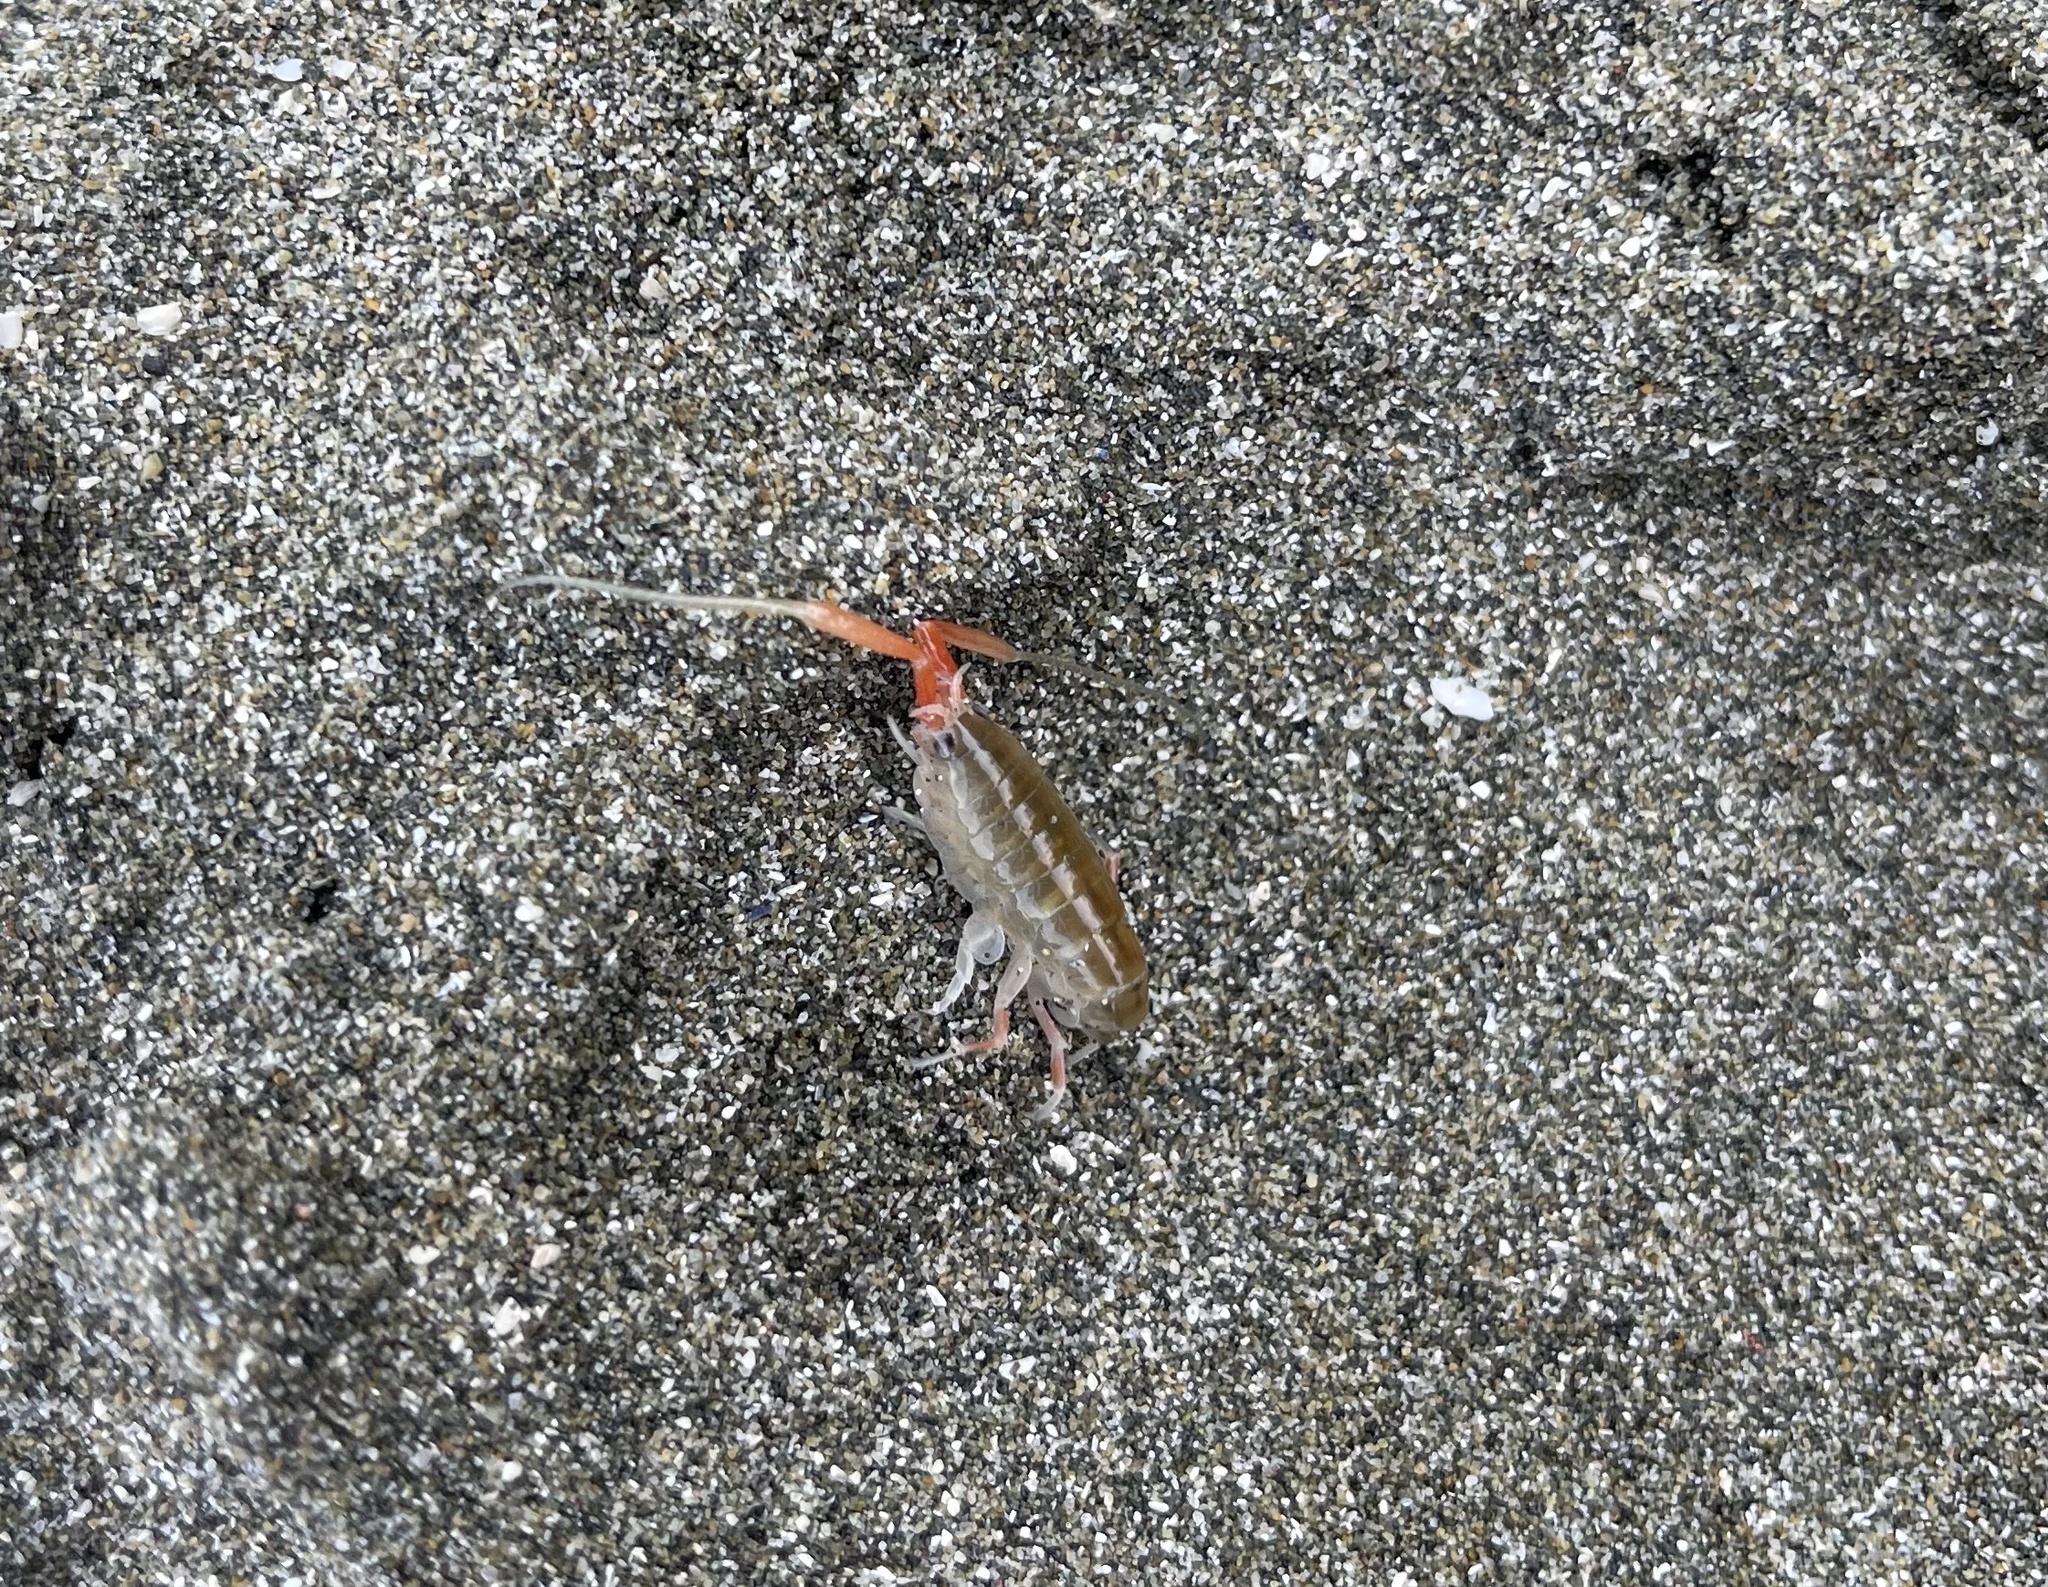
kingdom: Animalia
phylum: Arthropoda
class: Malacostraca
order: Amphipoda
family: Talitridae
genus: Megalorchestia
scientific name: Megalorchestia californiana
